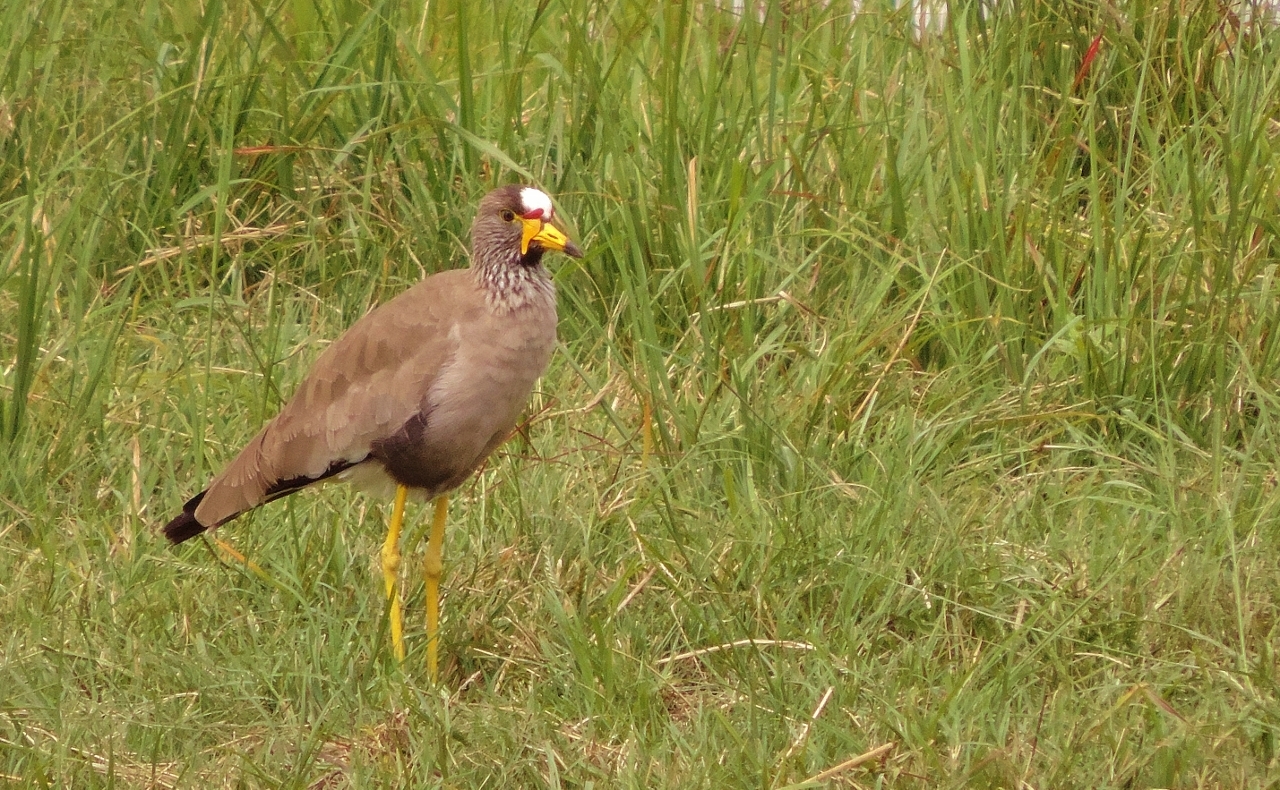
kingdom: Animalia
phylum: Chordata
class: Aves
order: Charadriiformes
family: Charadriidae
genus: Vanellus
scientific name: Vanellus senegallus
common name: African wattled lapwing
